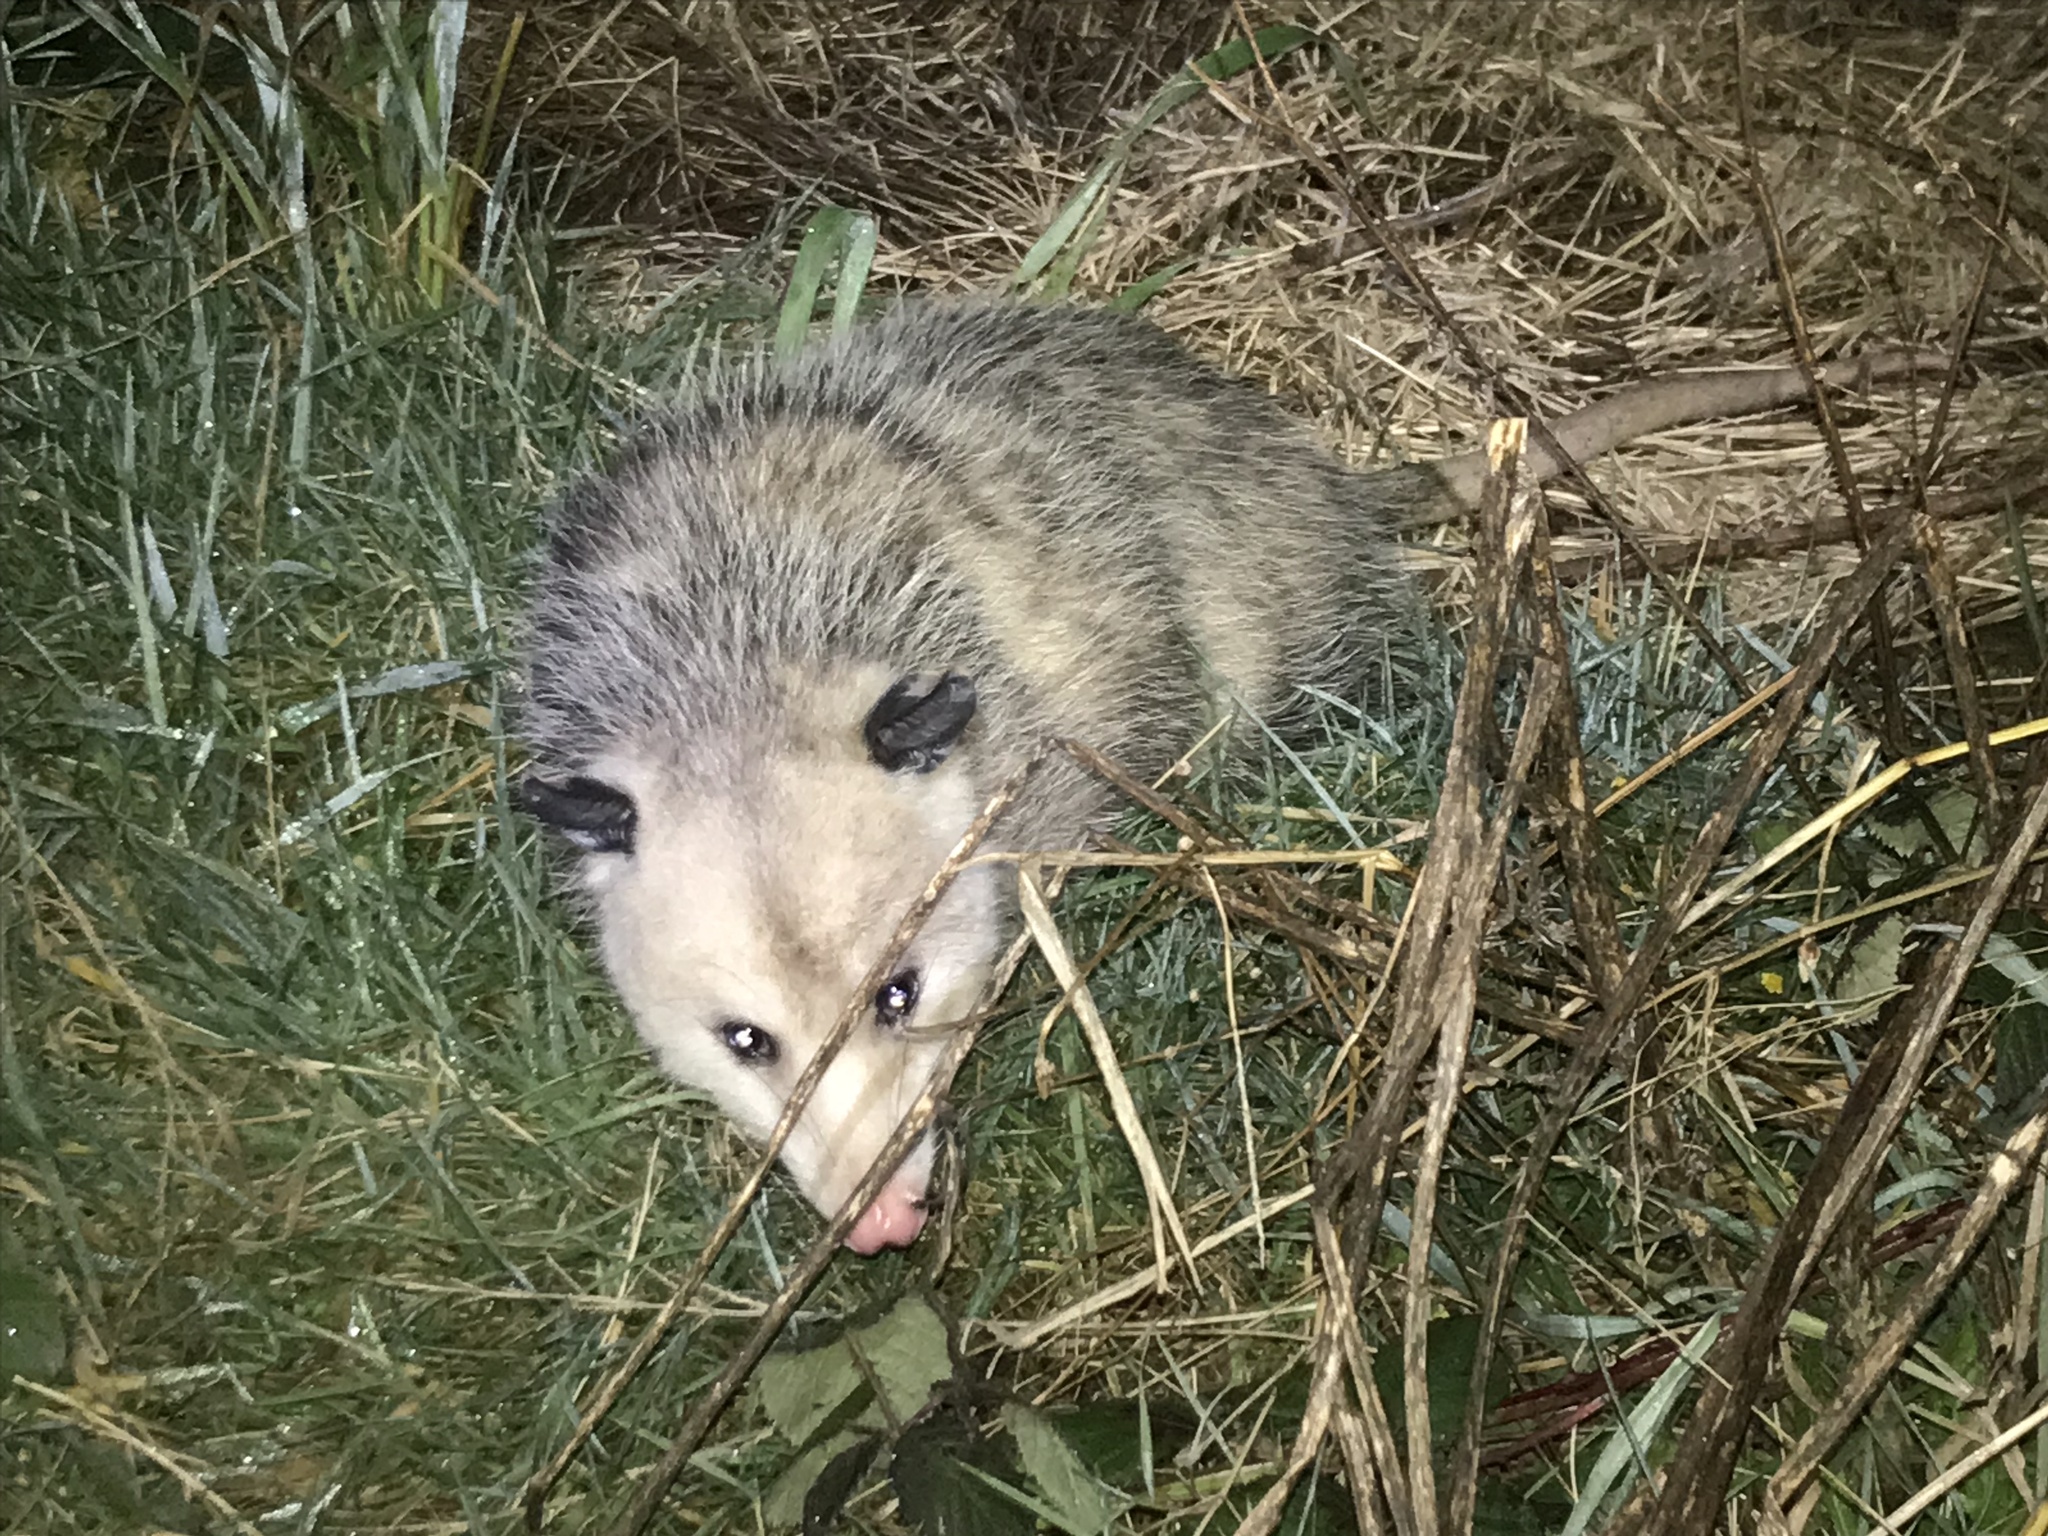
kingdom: Animalia
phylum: Chordata
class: Mammalia
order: Didelphimorphia
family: Didelphidae
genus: Didelphis
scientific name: Didelphis virginiana
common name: Virginia opossum
